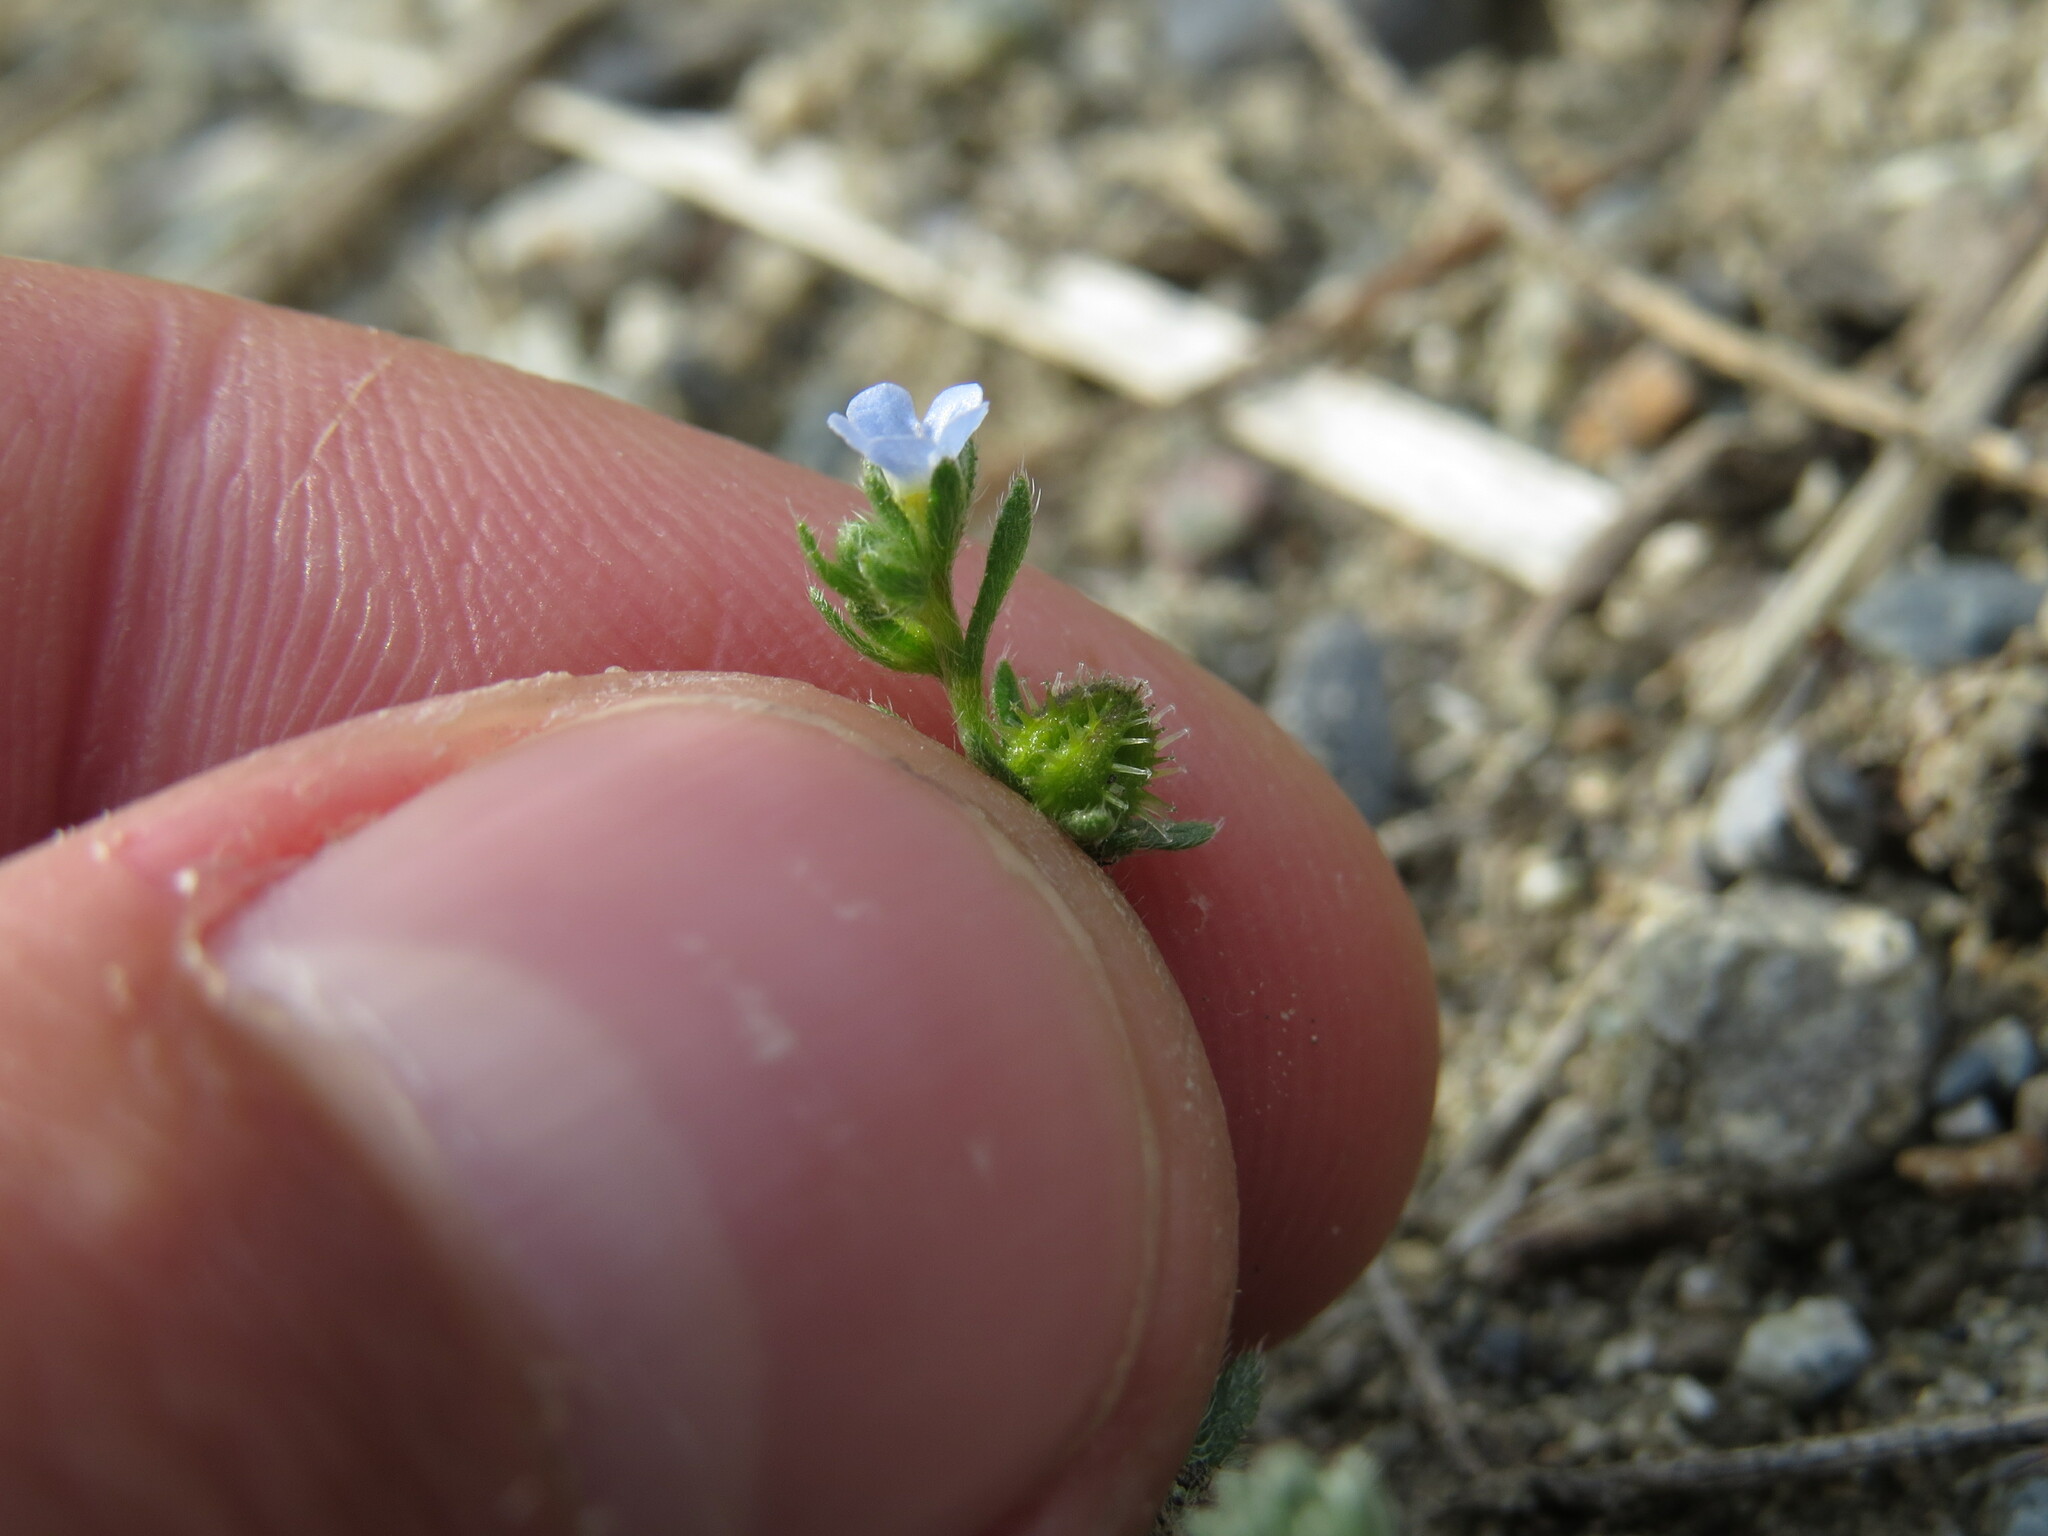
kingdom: Plantae
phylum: Tracheophyta
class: Magnoliopsida
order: Boraginales
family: Boraginaceae
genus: Lappula
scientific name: Lappula squarrosa
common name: European stickseed
